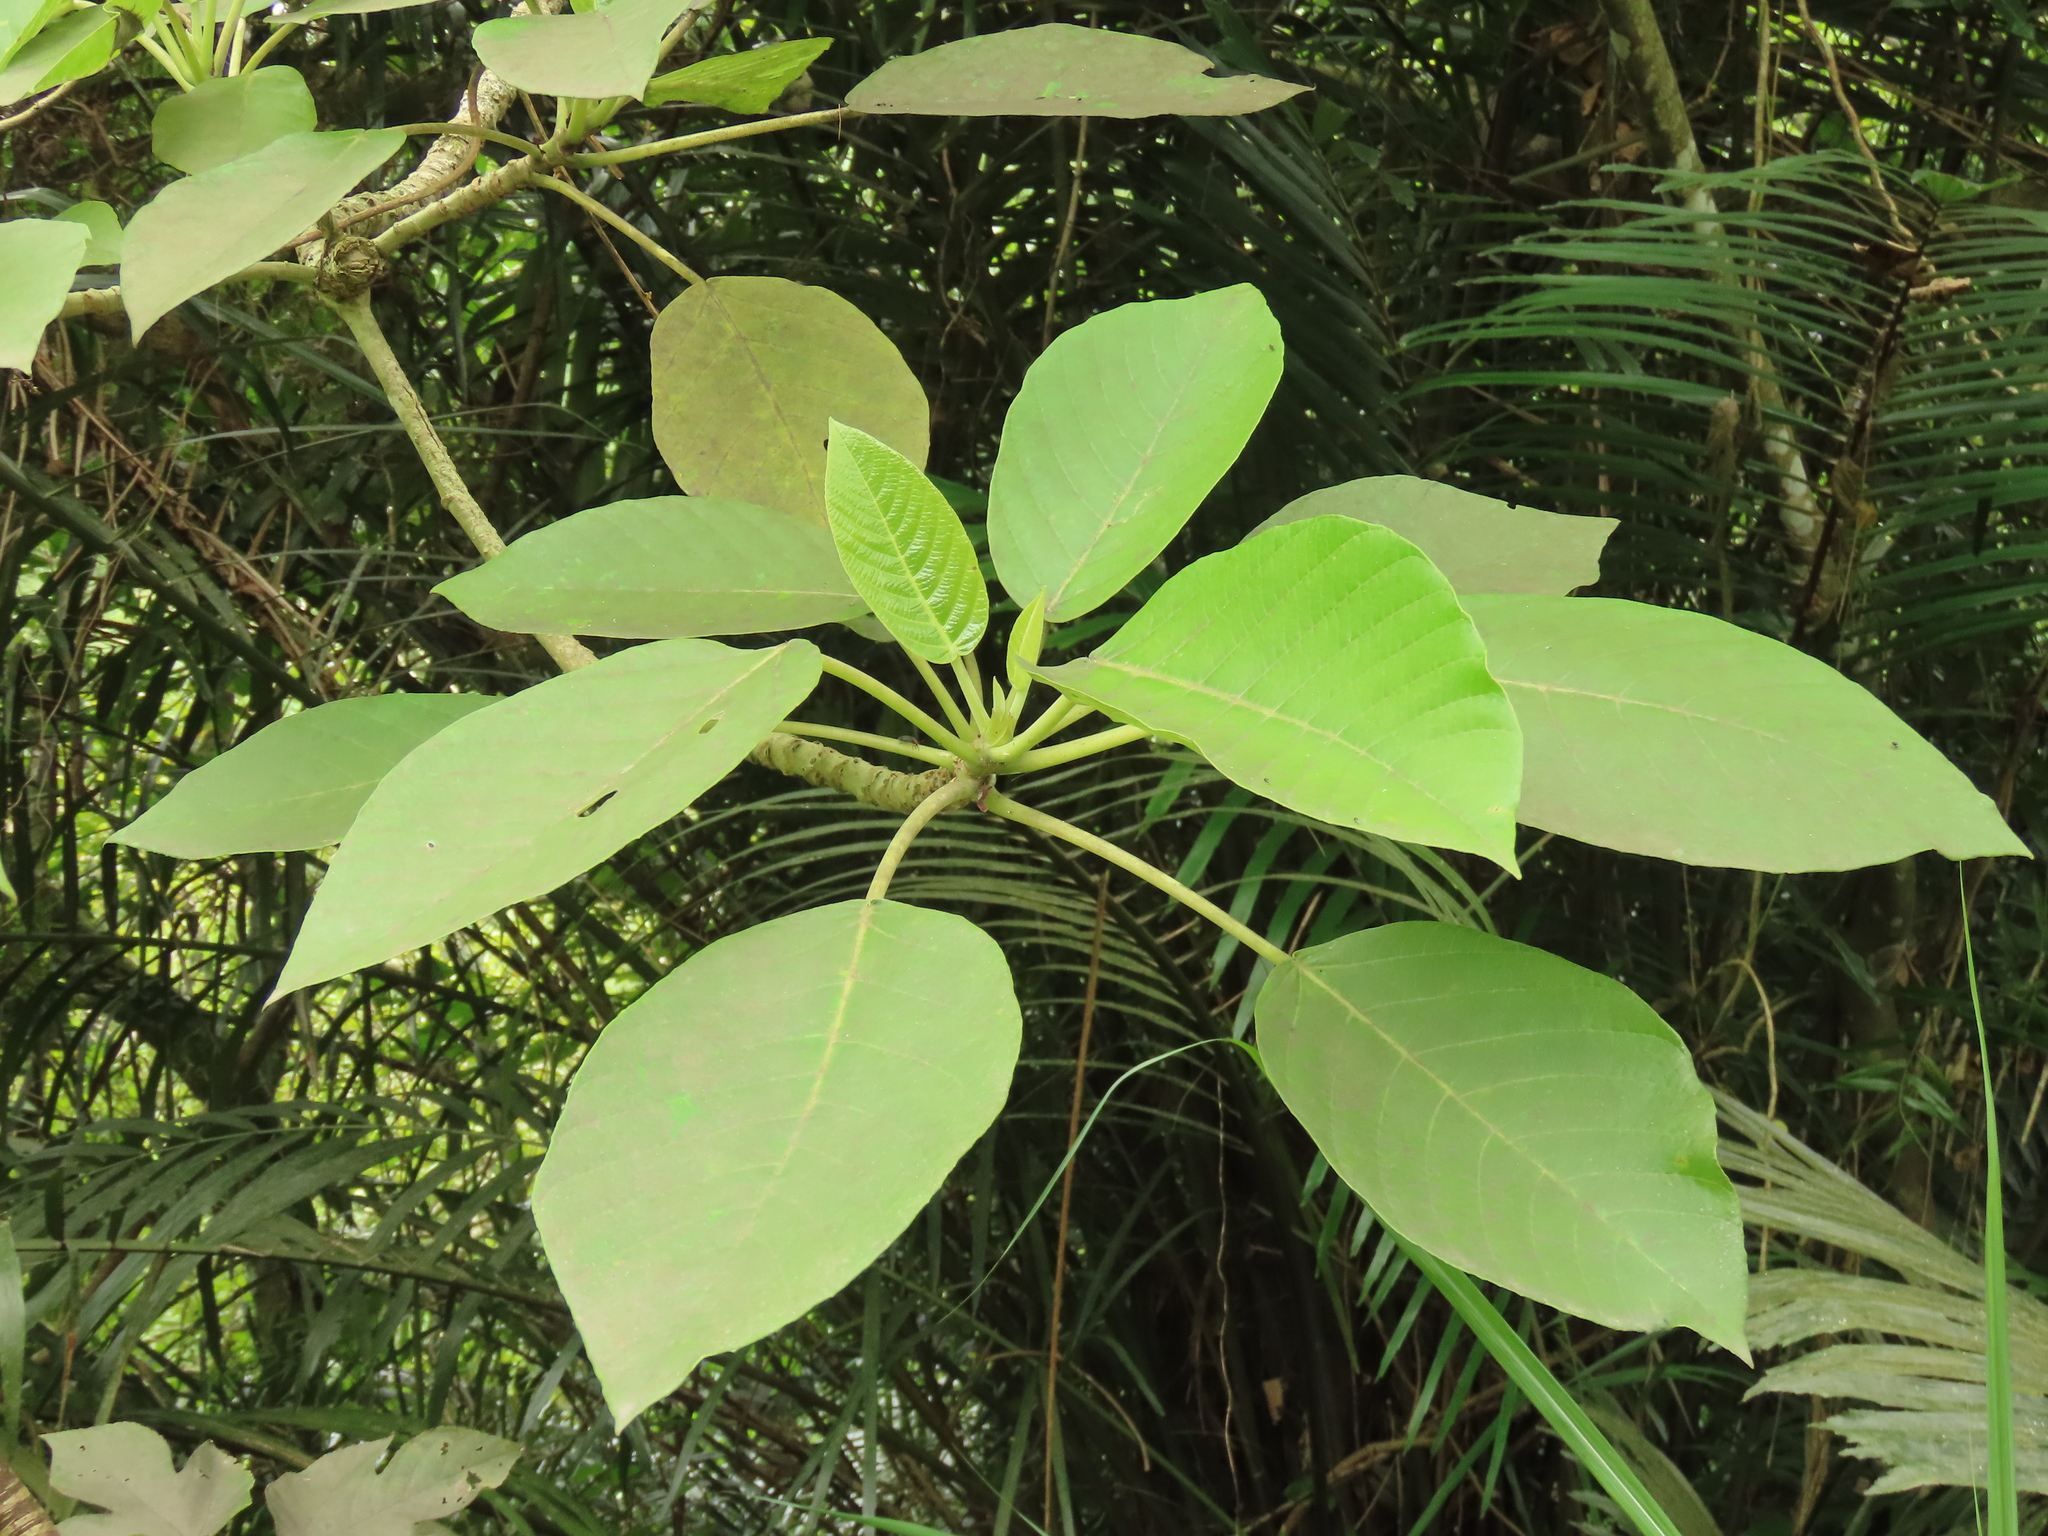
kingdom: Plantae
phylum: Tracheophyta
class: Magnoliopsida
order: Rosales
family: Urticaceae
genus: Dendrocnide
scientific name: Dendrocnide meyeniana
